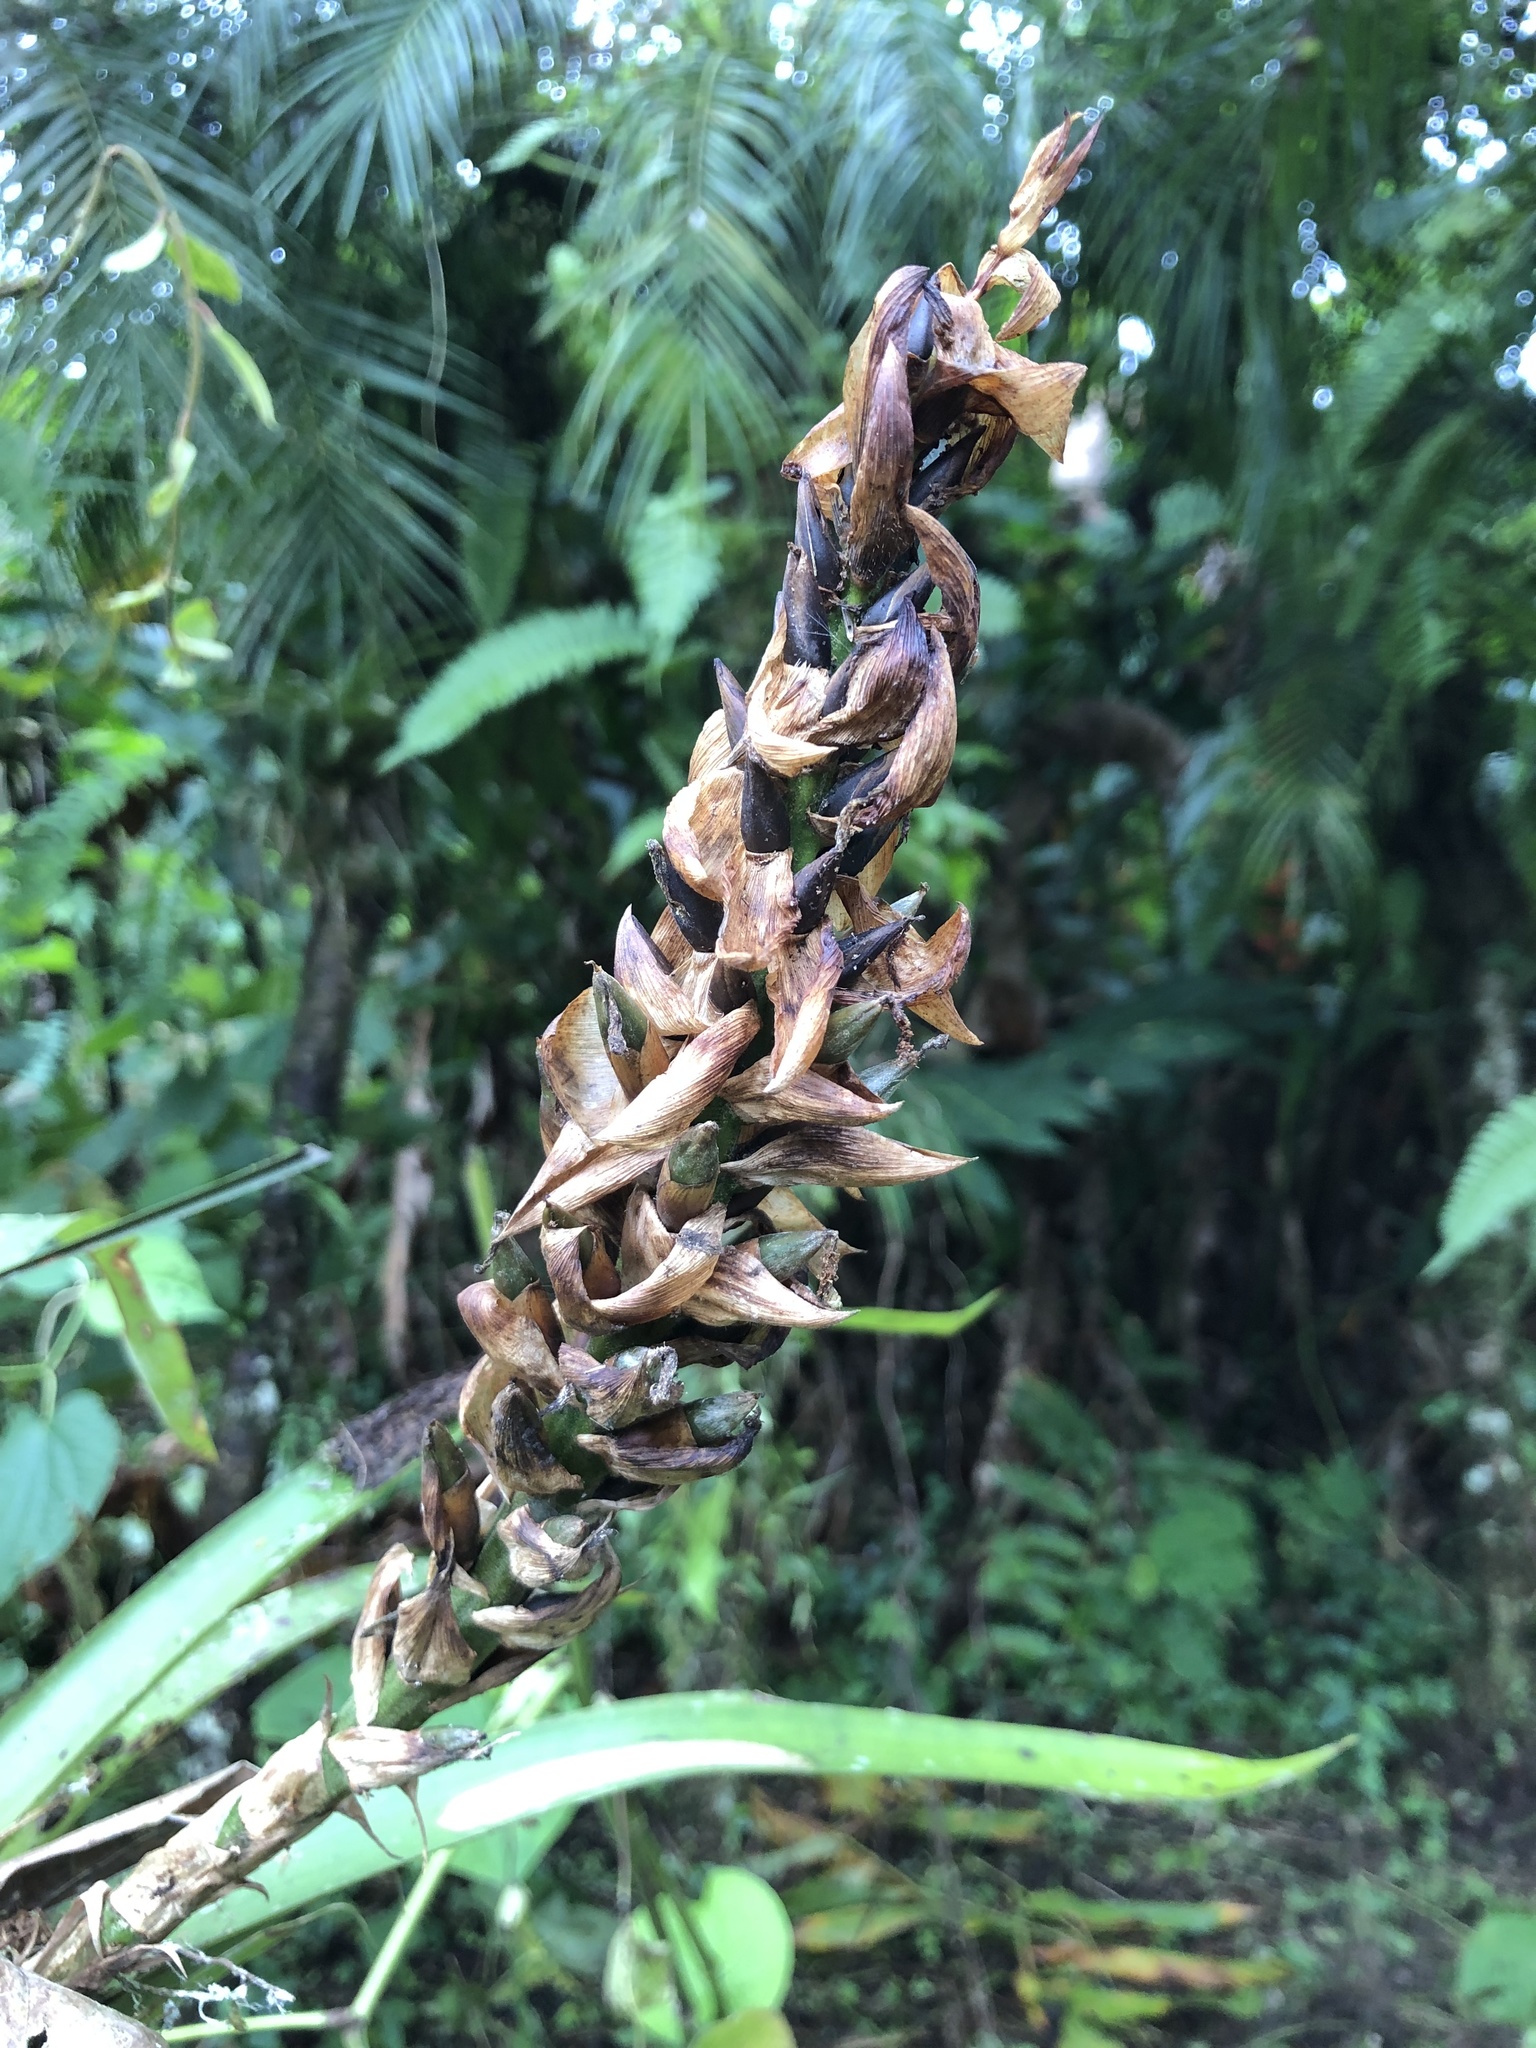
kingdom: Plantae
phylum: Tracheophyta
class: Liliopsida
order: Poales
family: Bromeliaceae
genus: Guzmania
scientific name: Guzmania monostachia
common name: West indian tufted airplant
